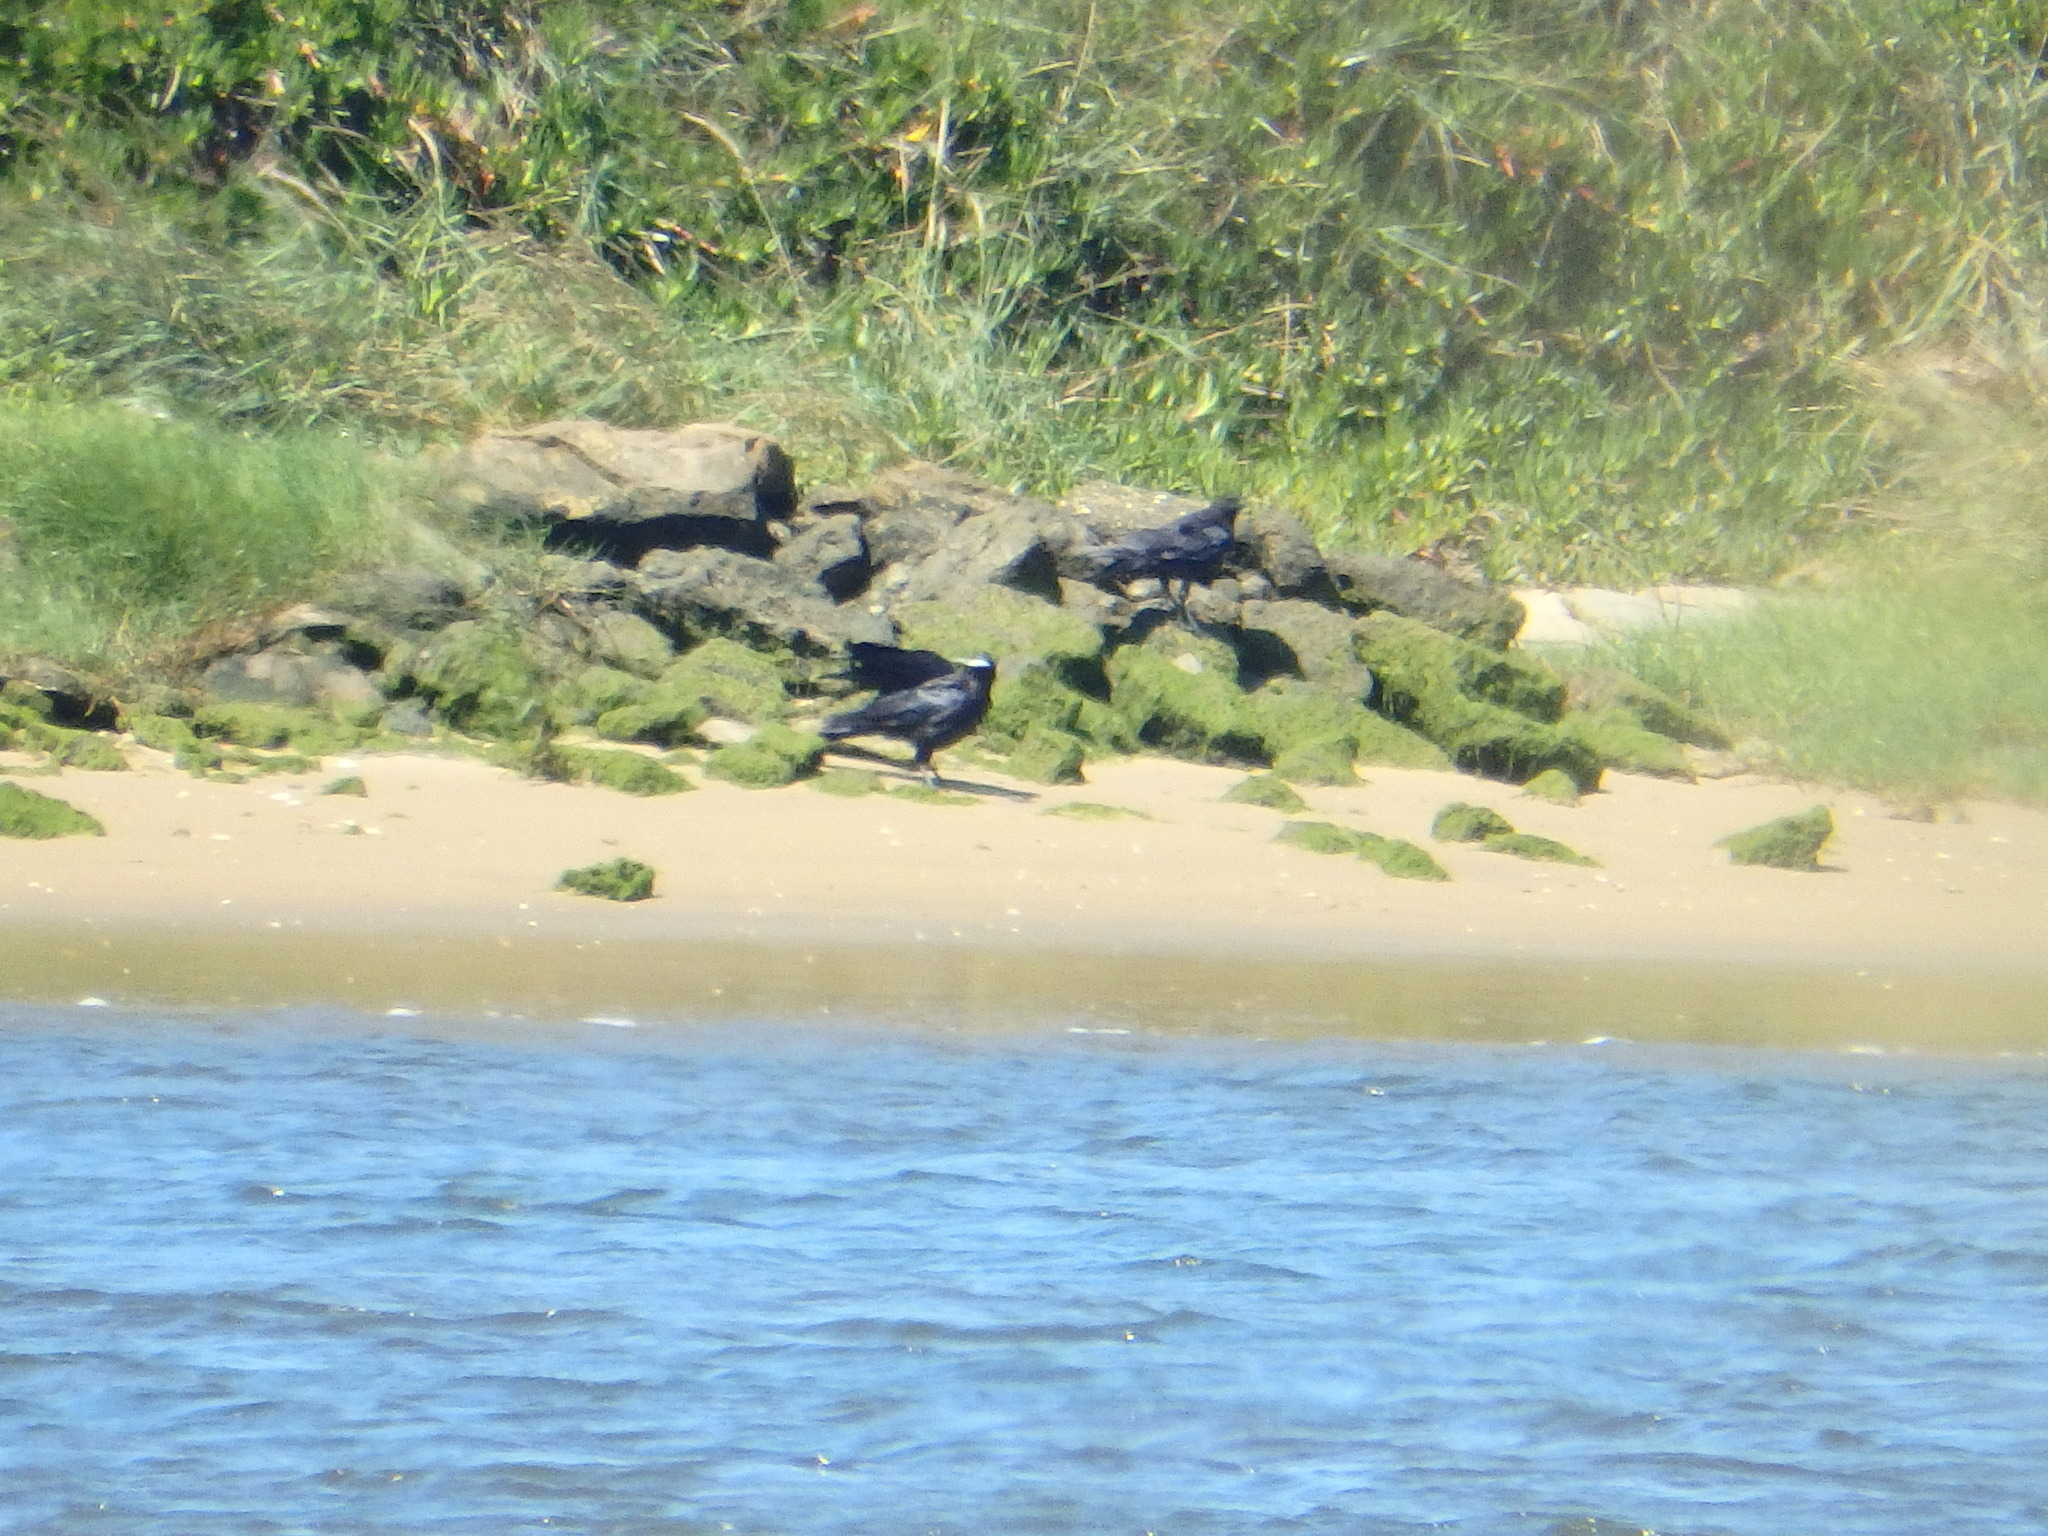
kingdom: Animalia
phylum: Chordata
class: Aves
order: Passeriformes
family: Corvidae
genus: Corvus
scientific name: Corvus corone
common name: Carrion crow
